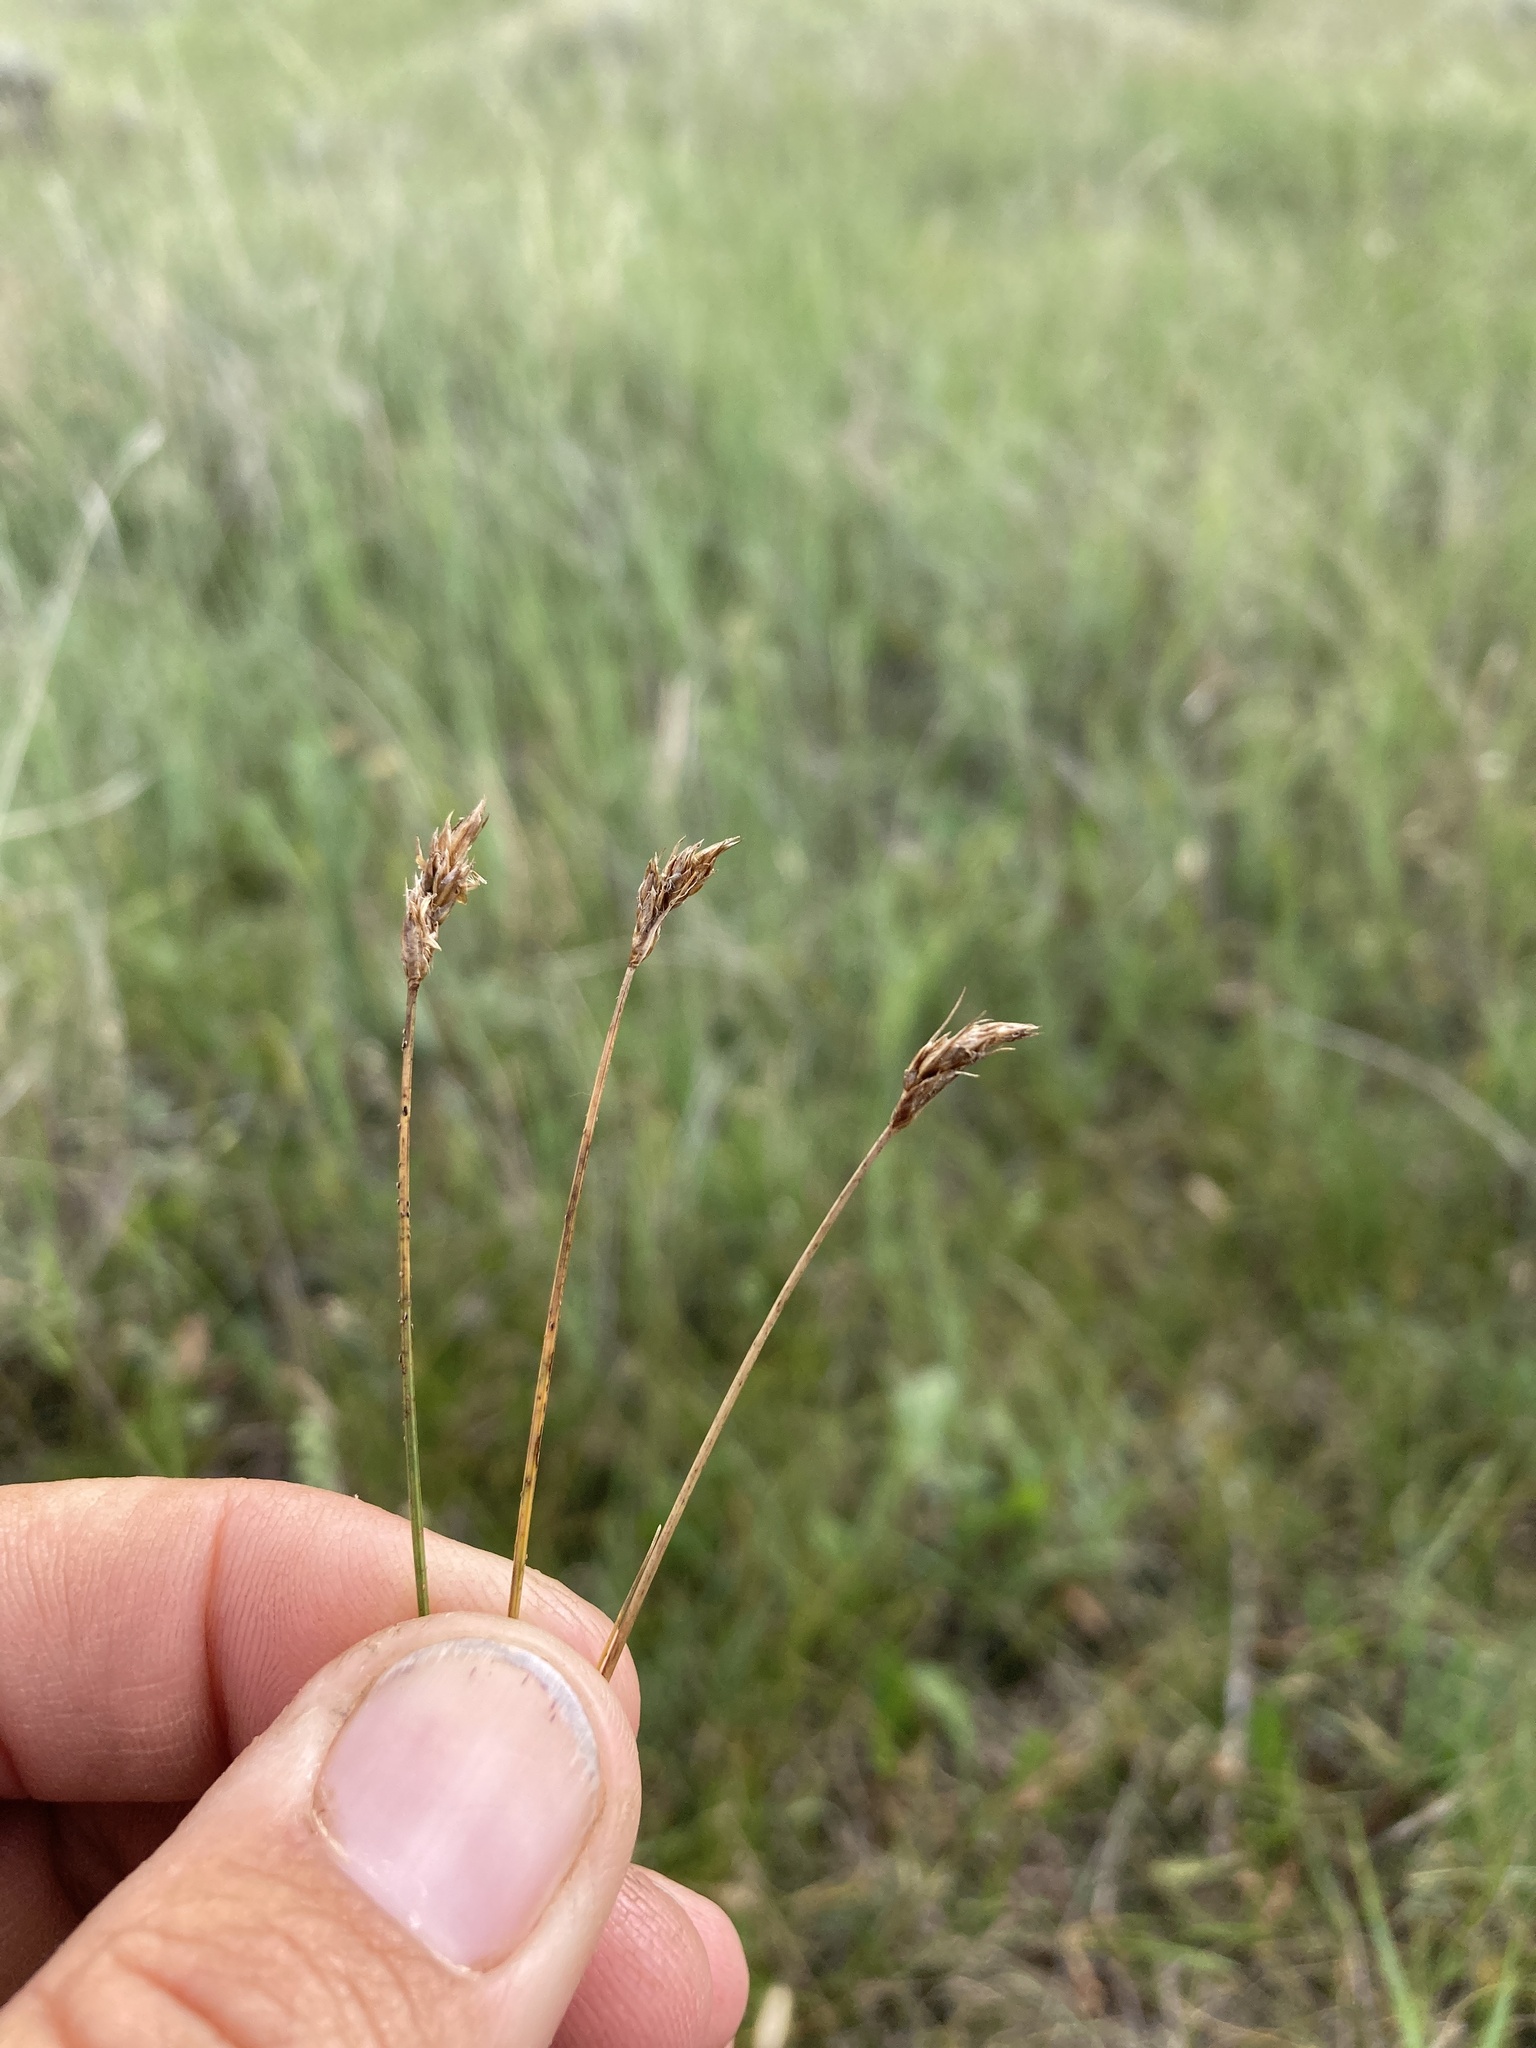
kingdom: Plantae
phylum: Tracheophyta
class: Liliopsida
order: Poales
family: Cyperaceae
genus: Carex
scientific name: Carex duriuscula
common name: Involute-leaved sedge
